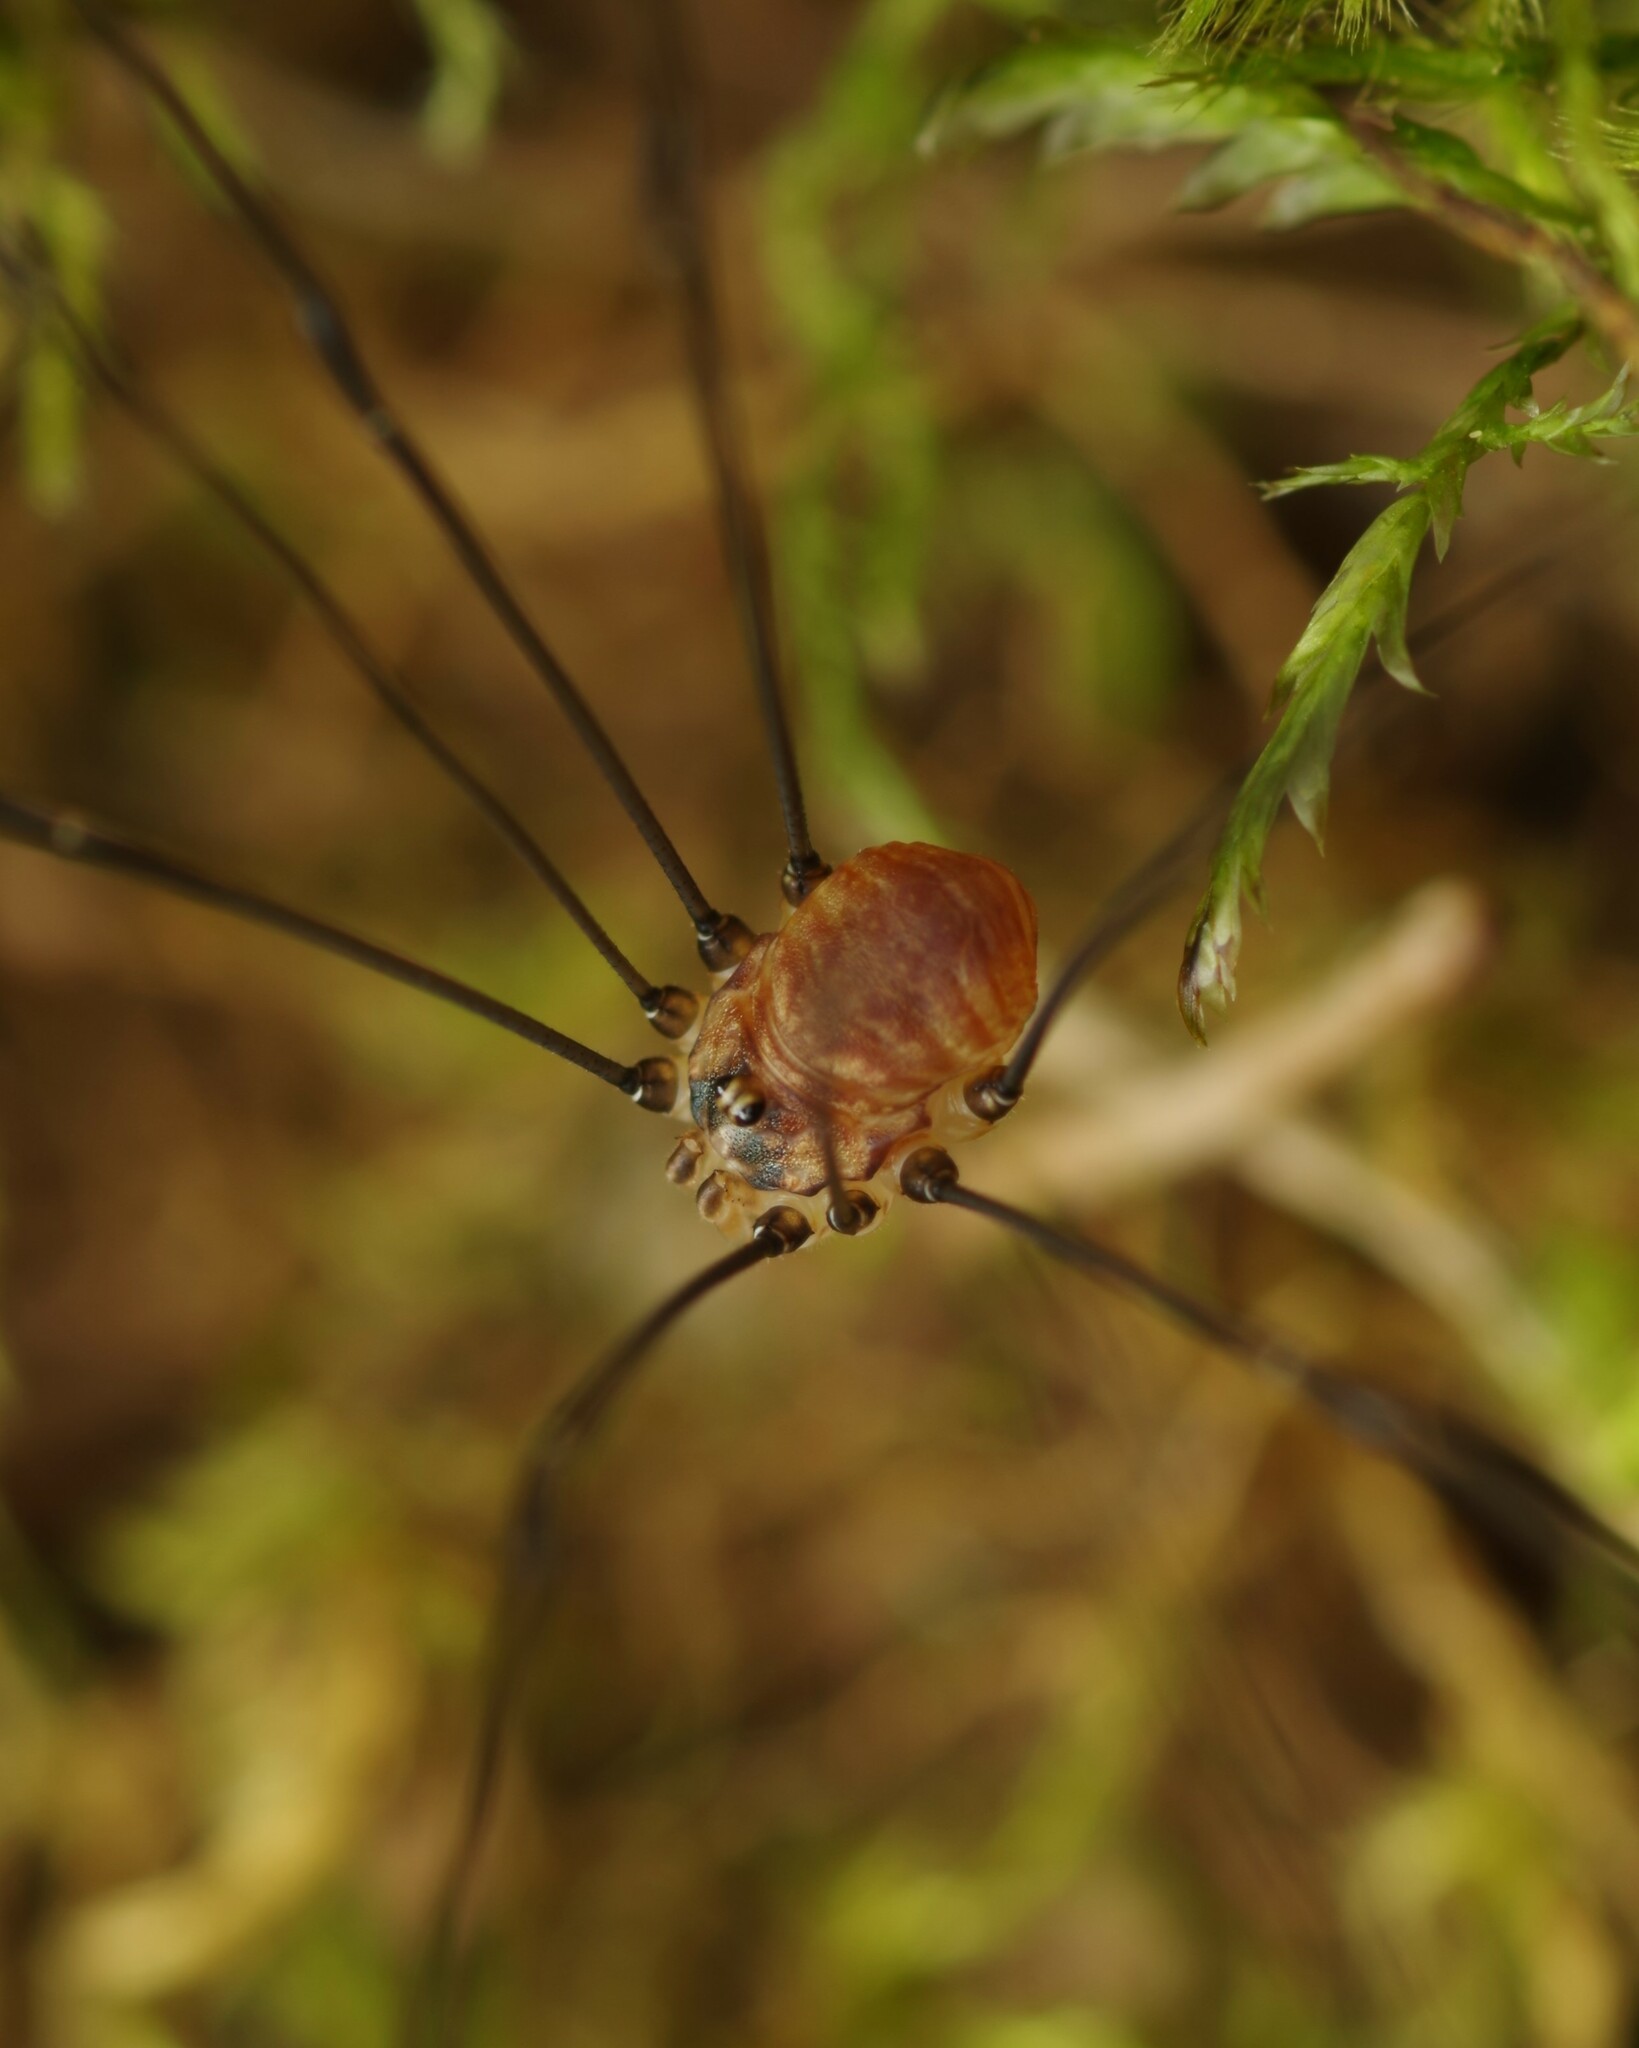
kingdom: Animalia
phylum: Arthropoda
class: Arachnida
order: Opiliones
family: Sclerosomatidae
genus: Leiobunum
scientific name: Leiobunum blackwalli
